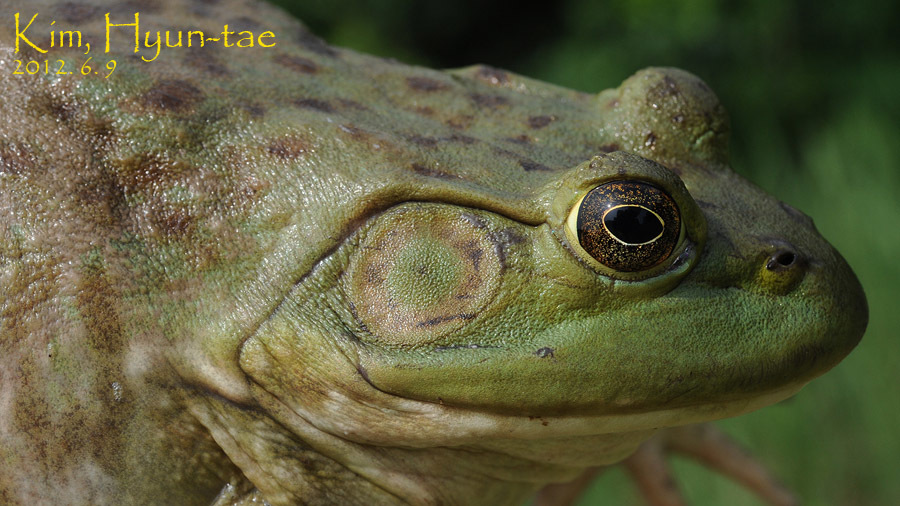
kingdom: Animalia
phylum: Chordata
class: Amphibia
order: Anura
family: Ranidae
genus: Lithobates
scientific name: Lithobates catesbeianus
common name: American bullfrog
